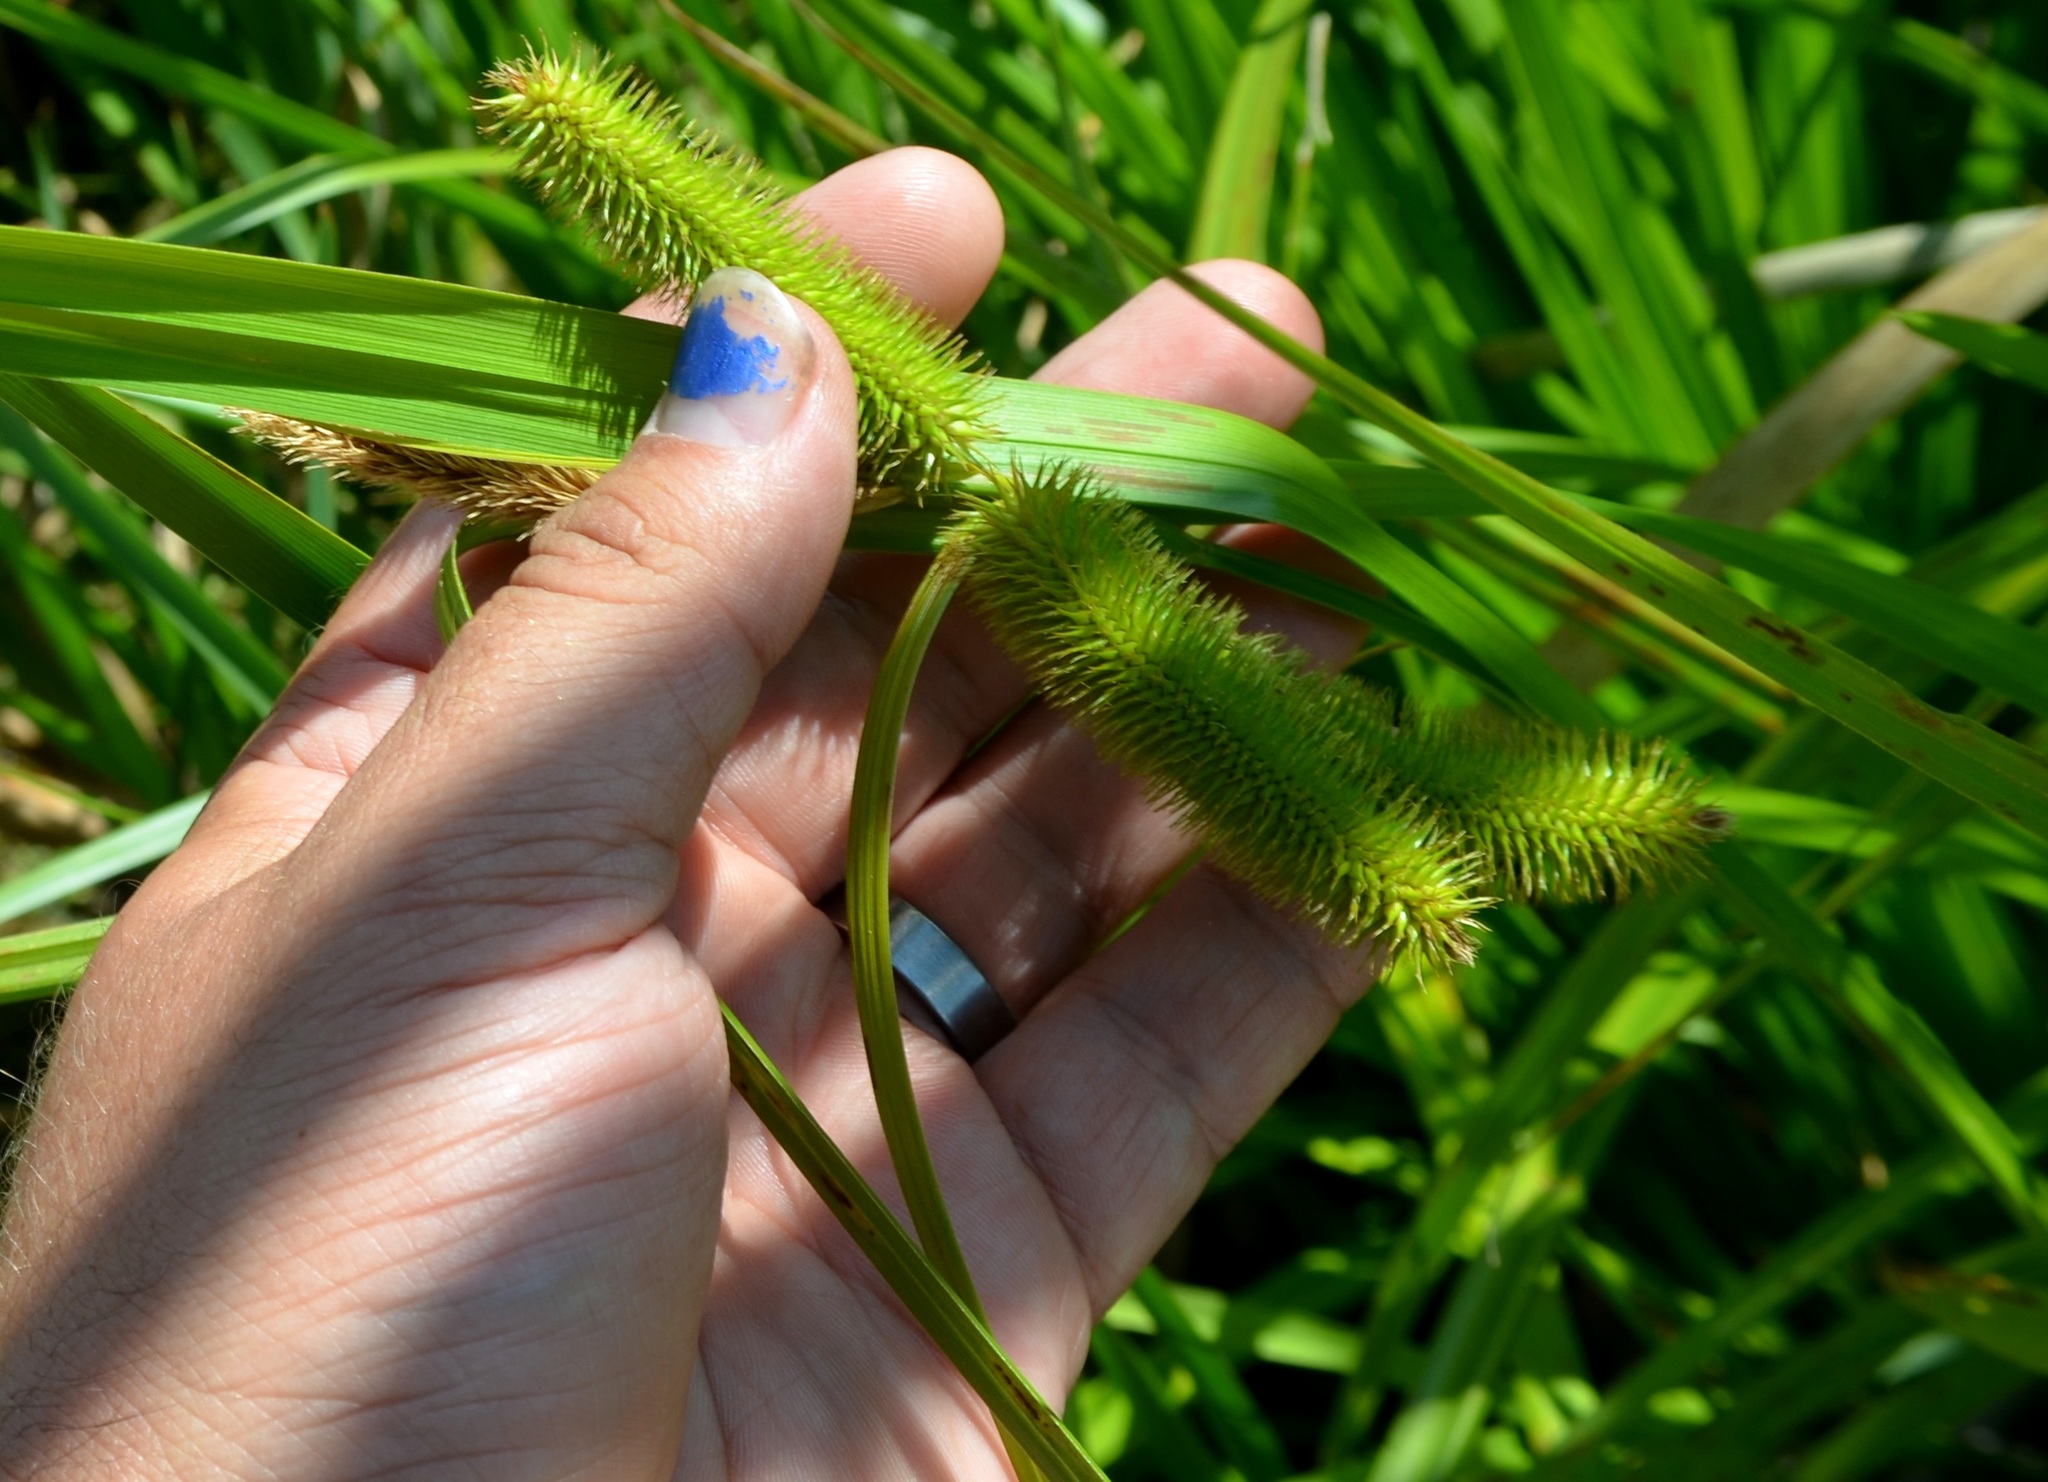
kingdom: Plantae
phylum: Tracheophyta
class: Liliopsida
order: Poales
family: Cyperaceae
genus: Carex
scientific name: Carex comosa
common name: Bristly sedge
